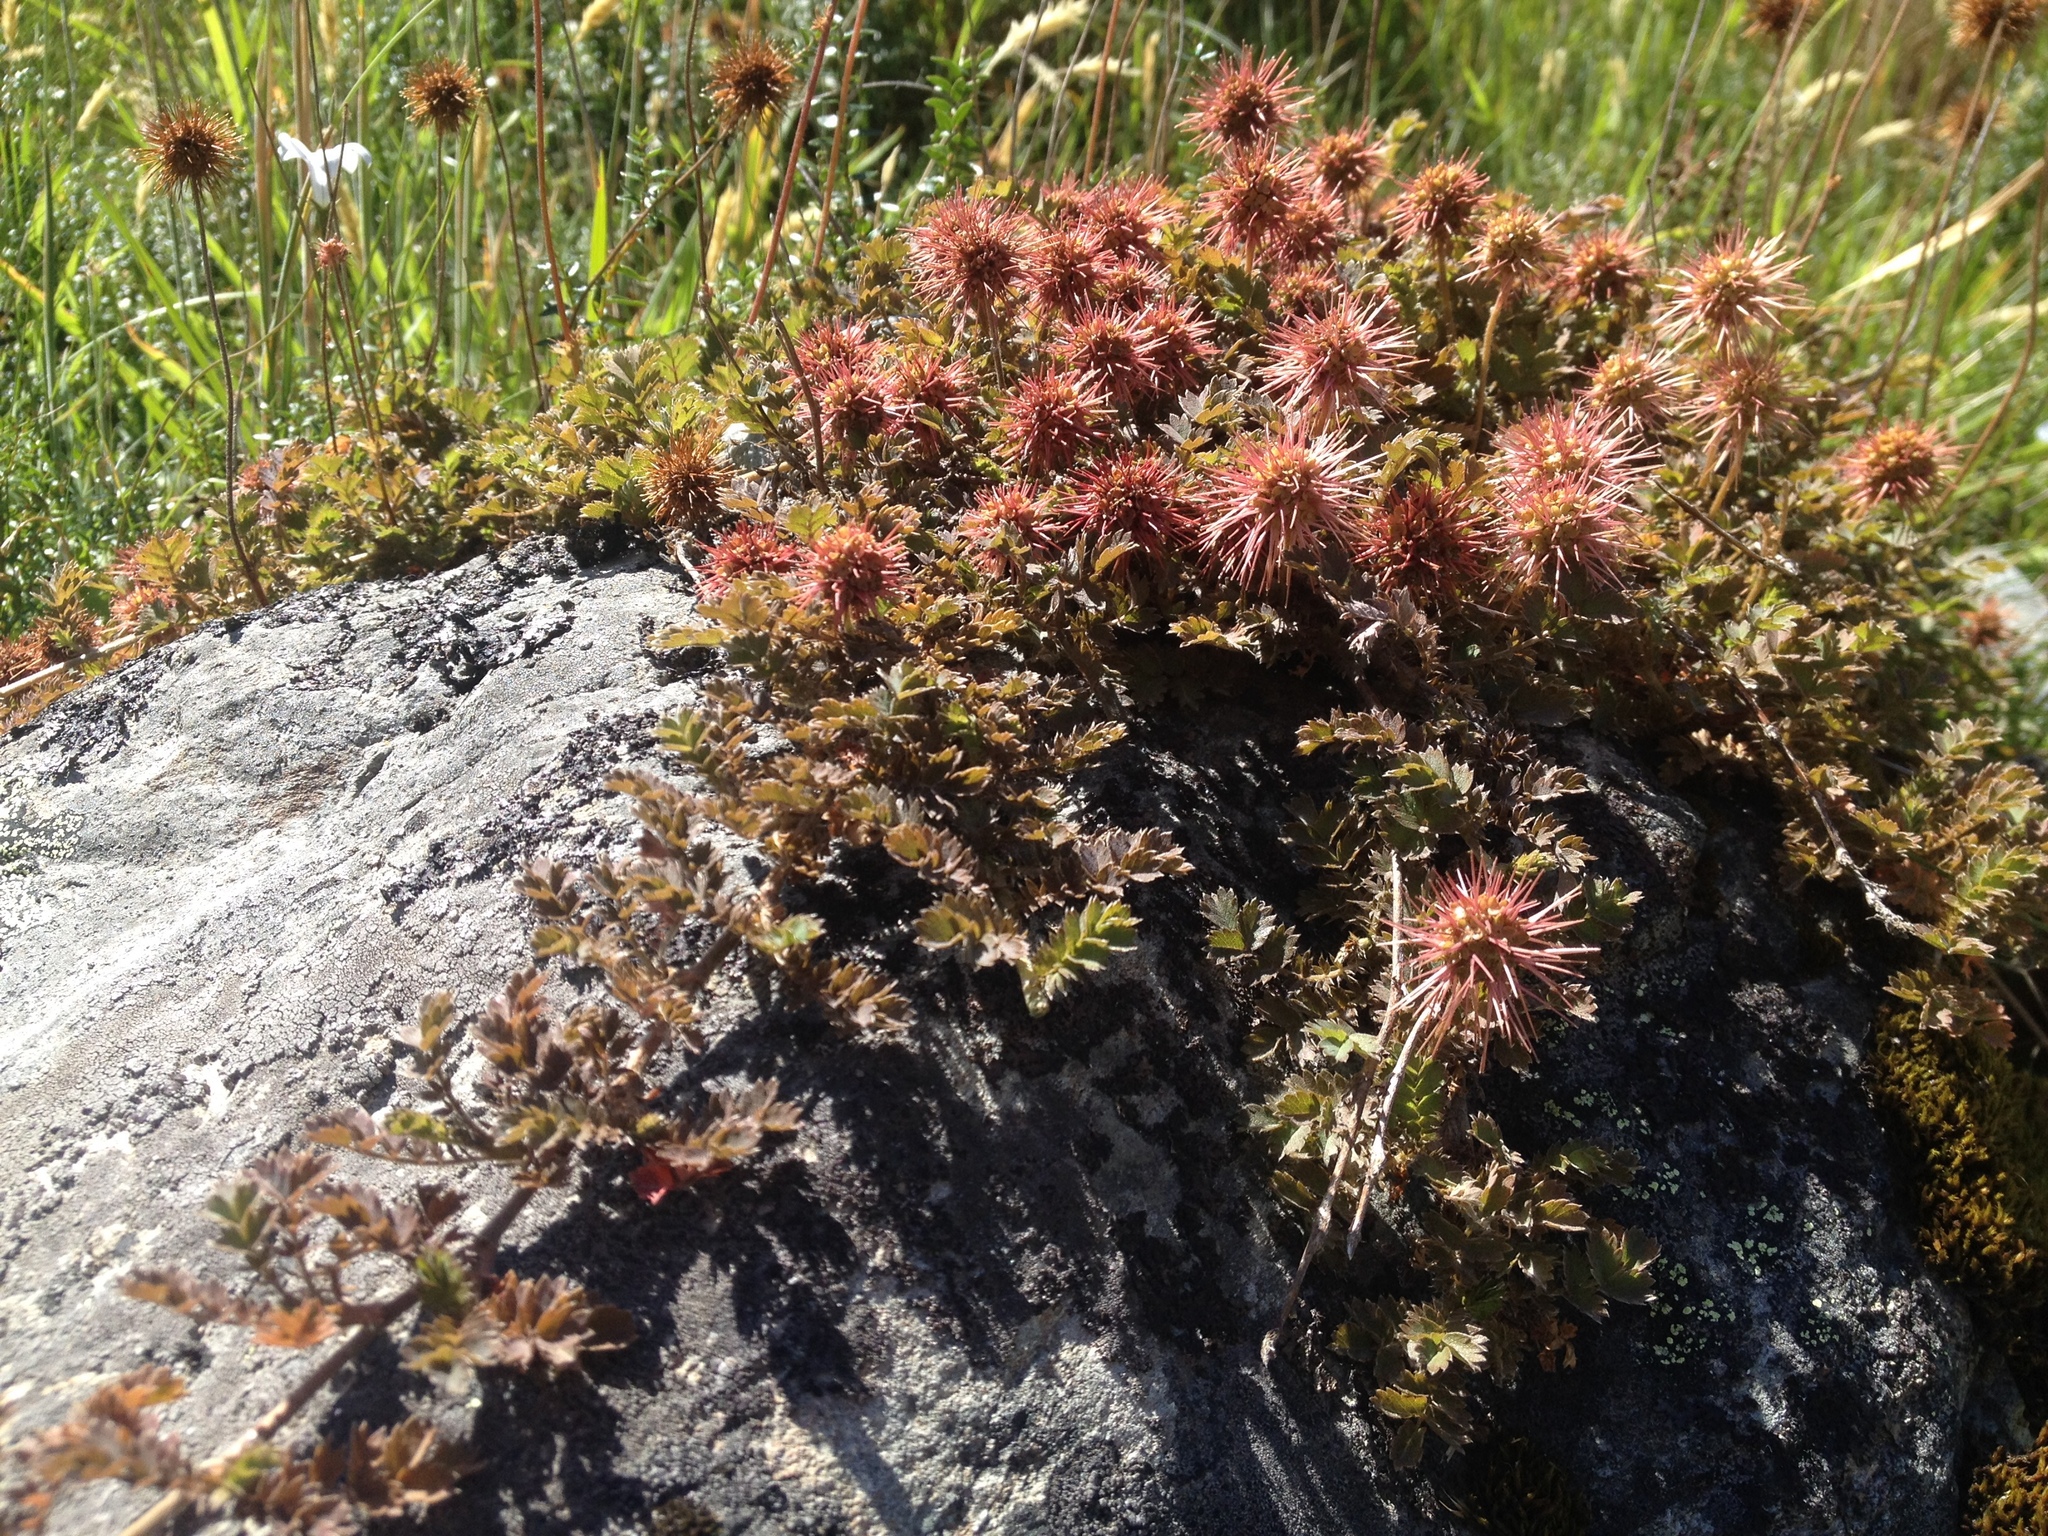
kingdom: Plantae
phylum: Tracheophyta
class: Magnoliopsida
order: Rosales
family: Rosaceae
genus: Acaena
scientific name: Acaena inermis
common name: Spineless acaena
